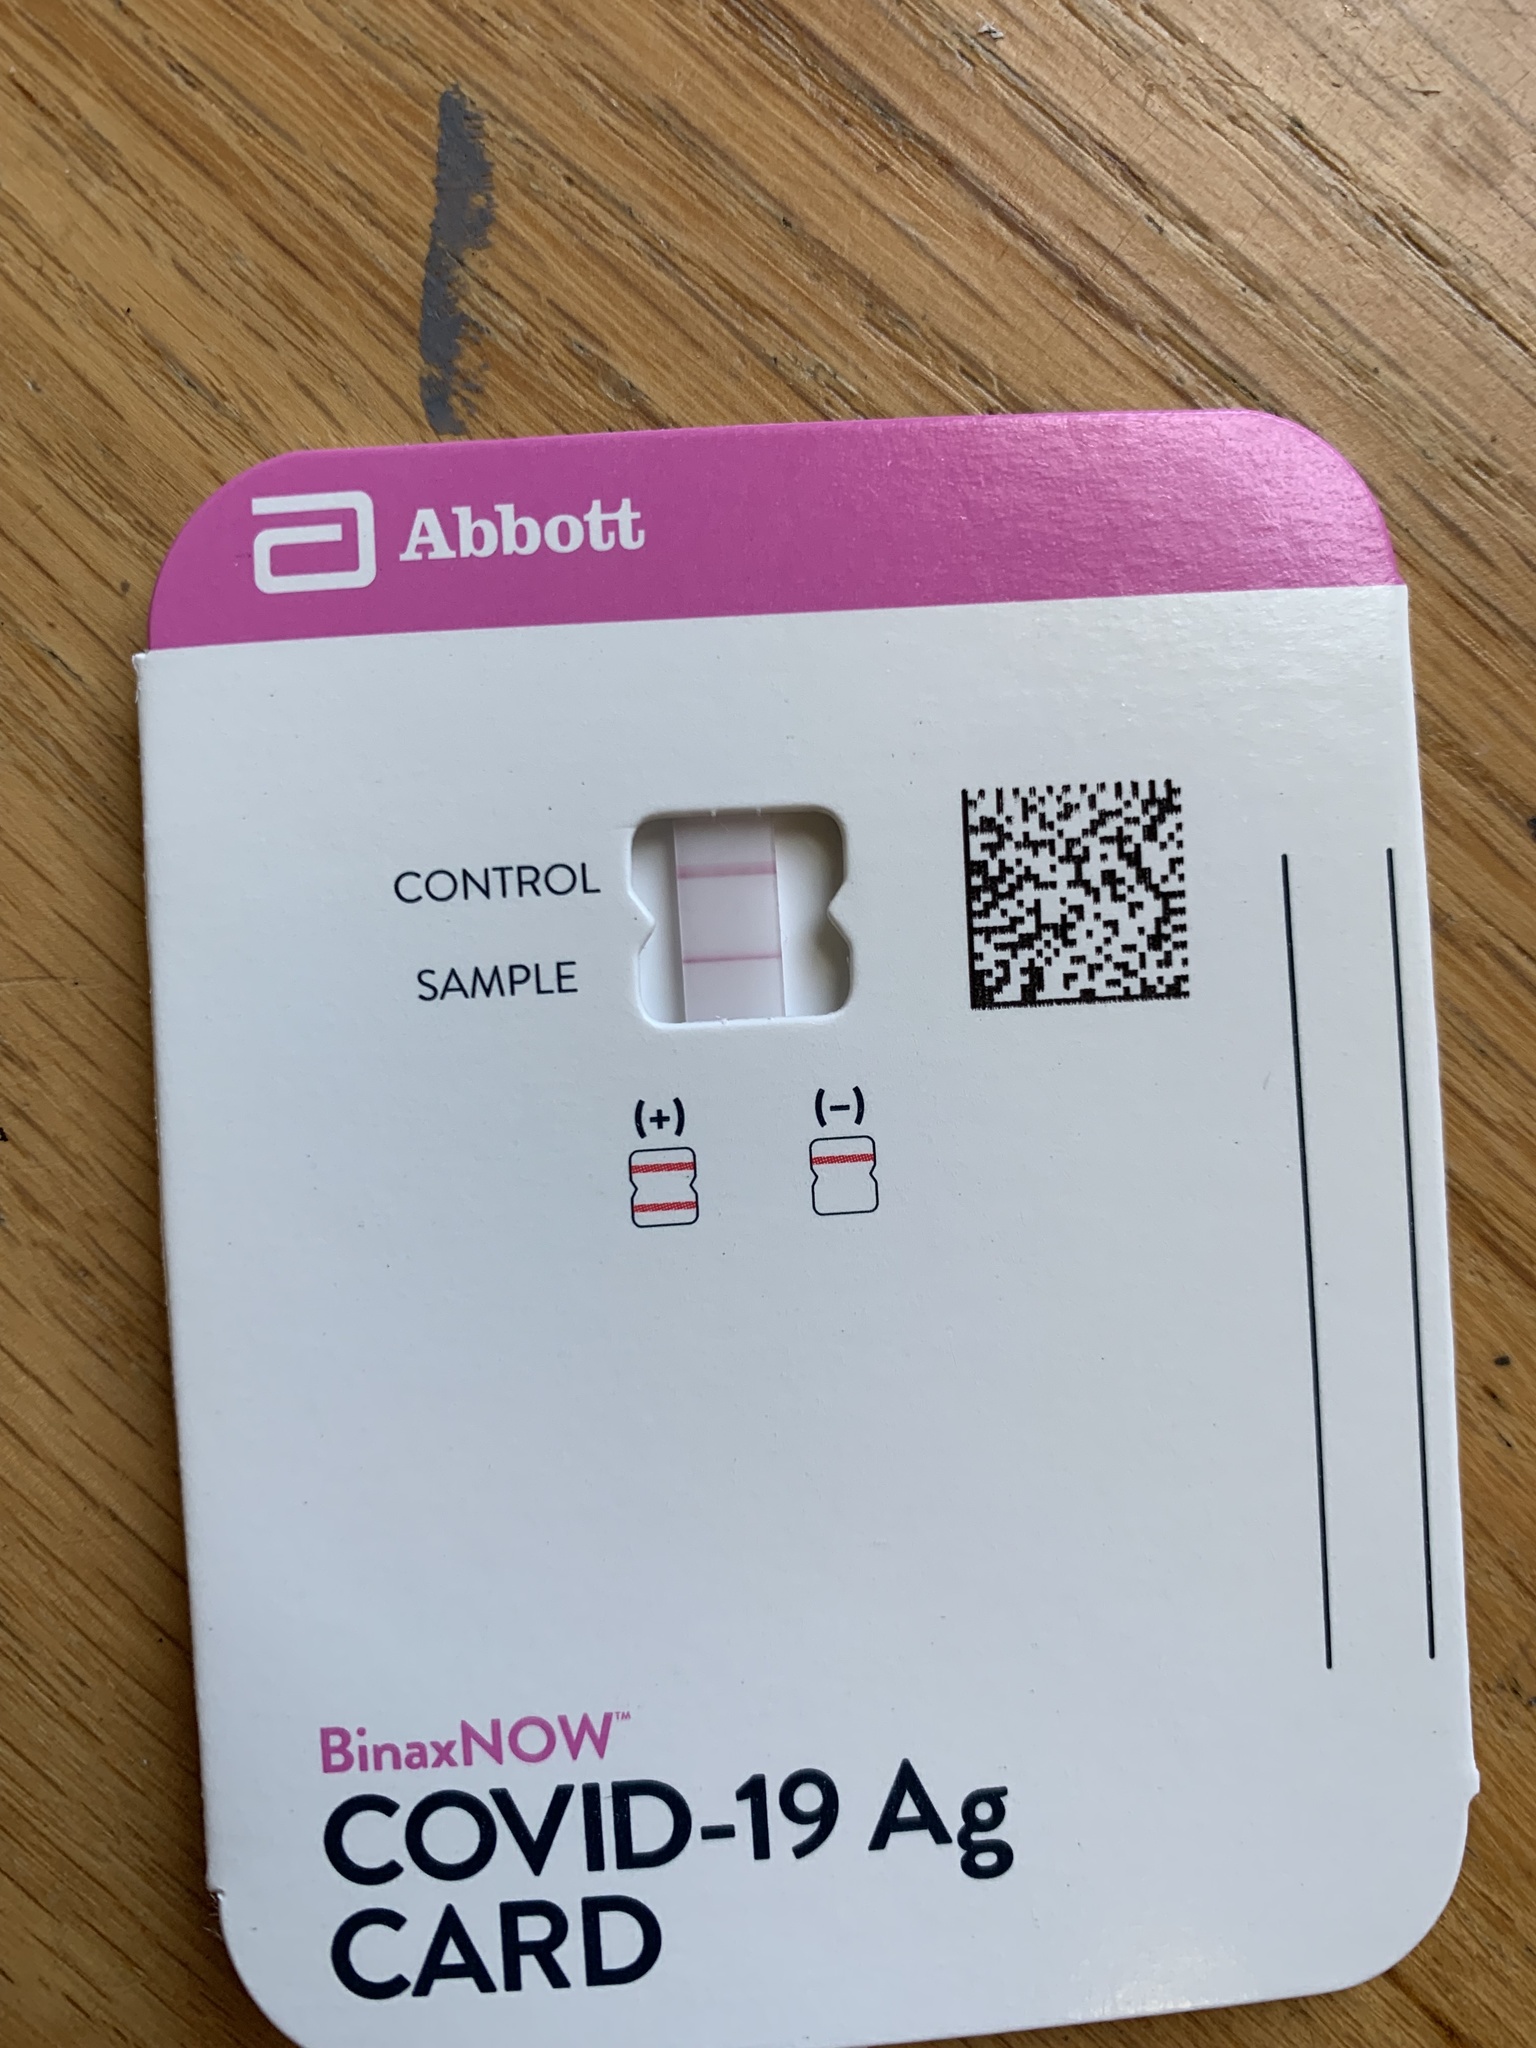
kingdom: Viruses
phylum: Pisuviricota
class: Pisoniviricetes
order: Nidovirales
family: Coronaviridae
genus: Betacoronavirus
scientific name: Betacoronavirus
